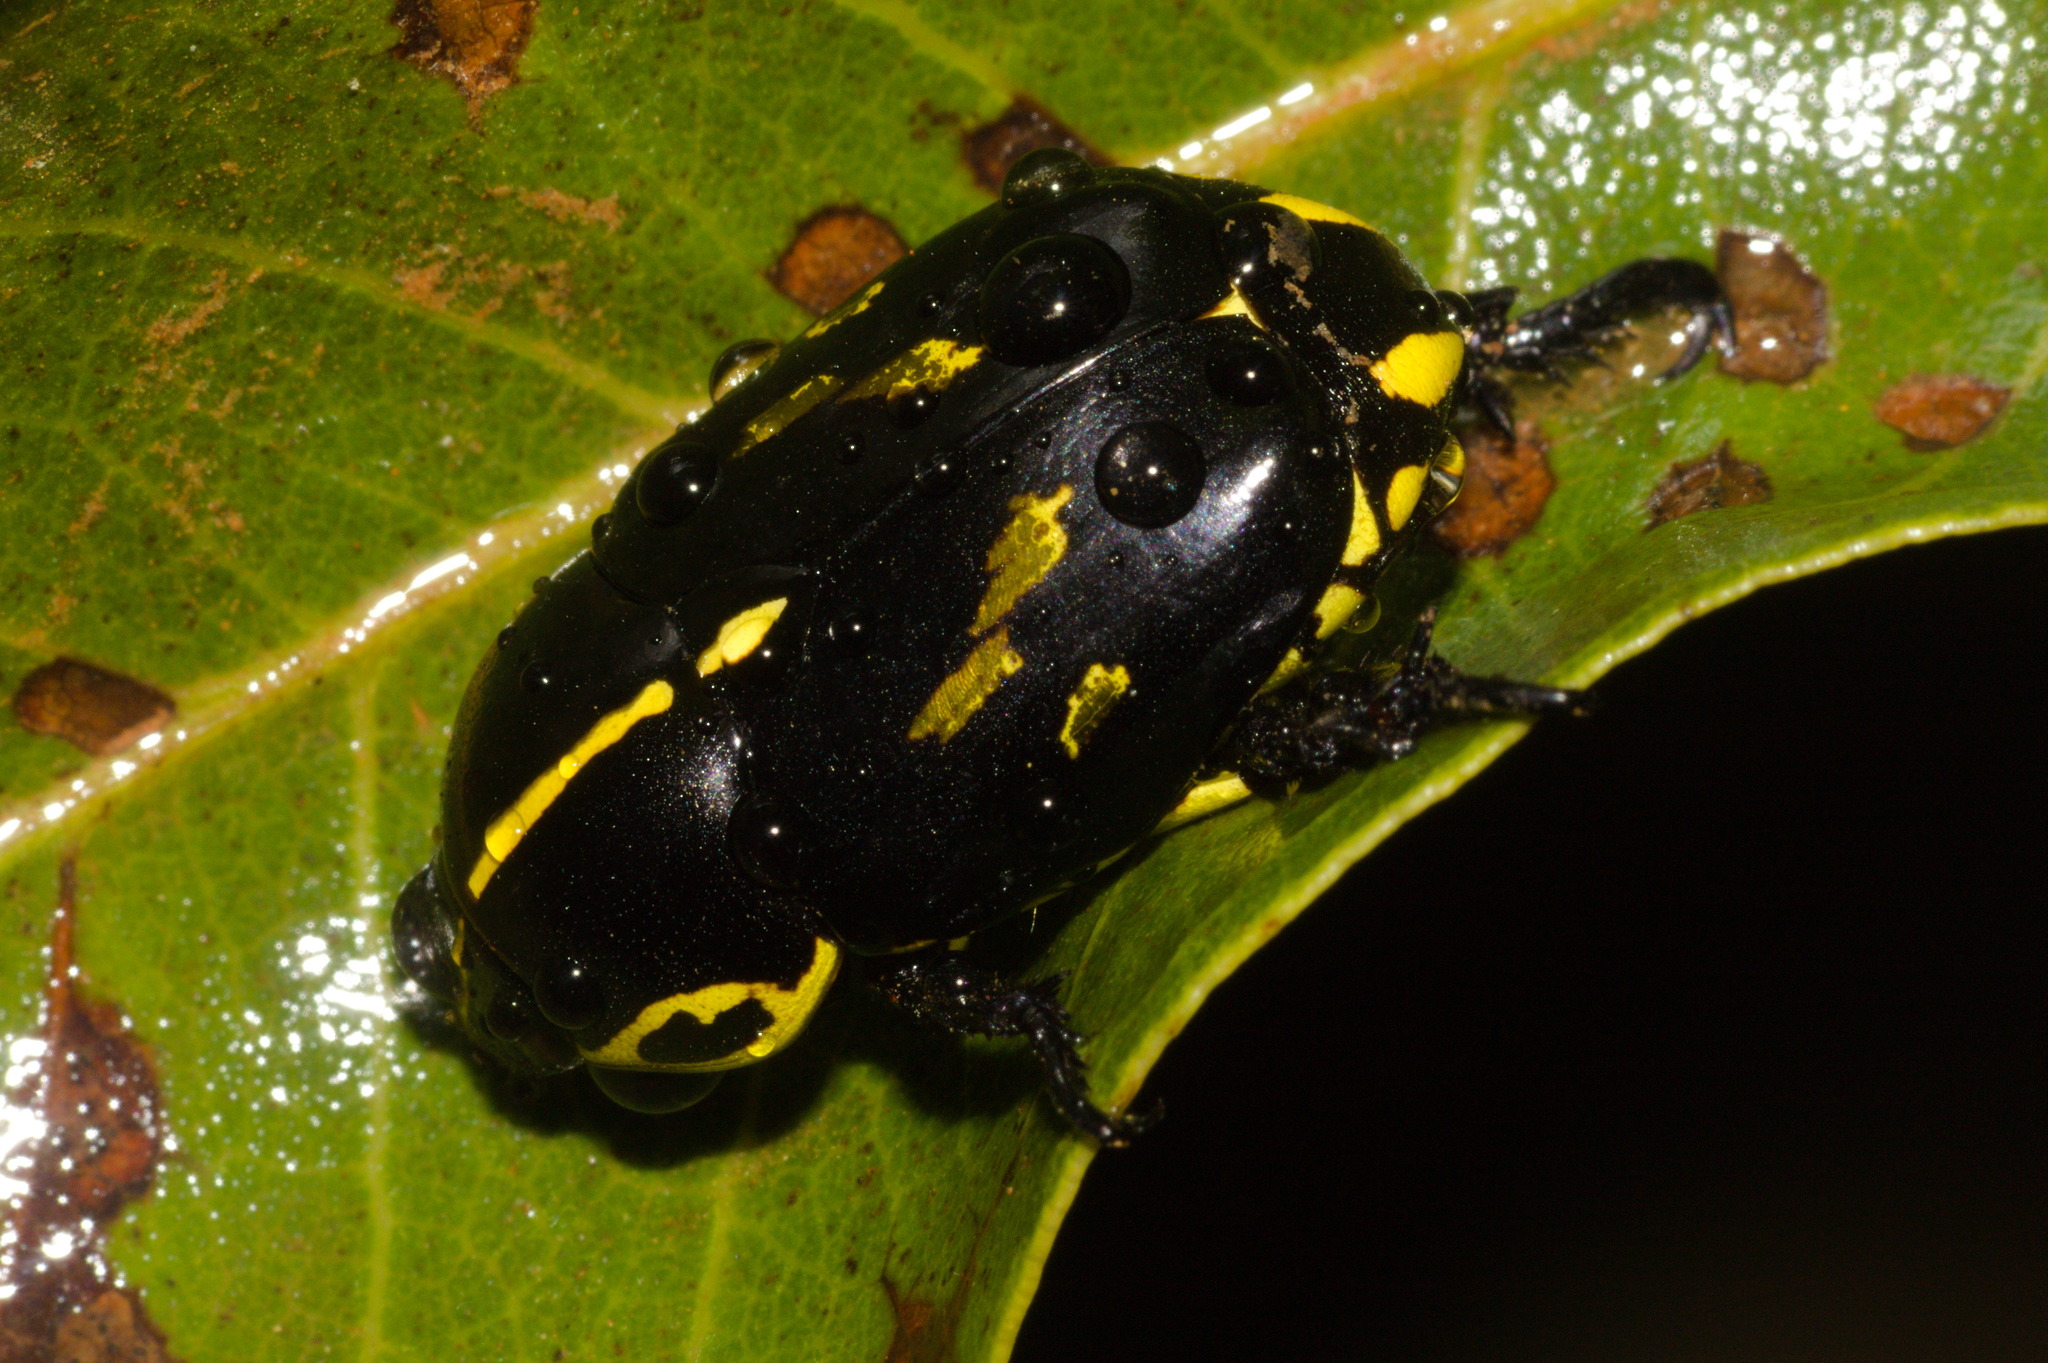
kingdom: Animalia
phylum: Arthropoda
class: Insecta
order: Coleoptera
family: Scarabaeidae
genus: Rutela
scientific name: Rutela lineola
